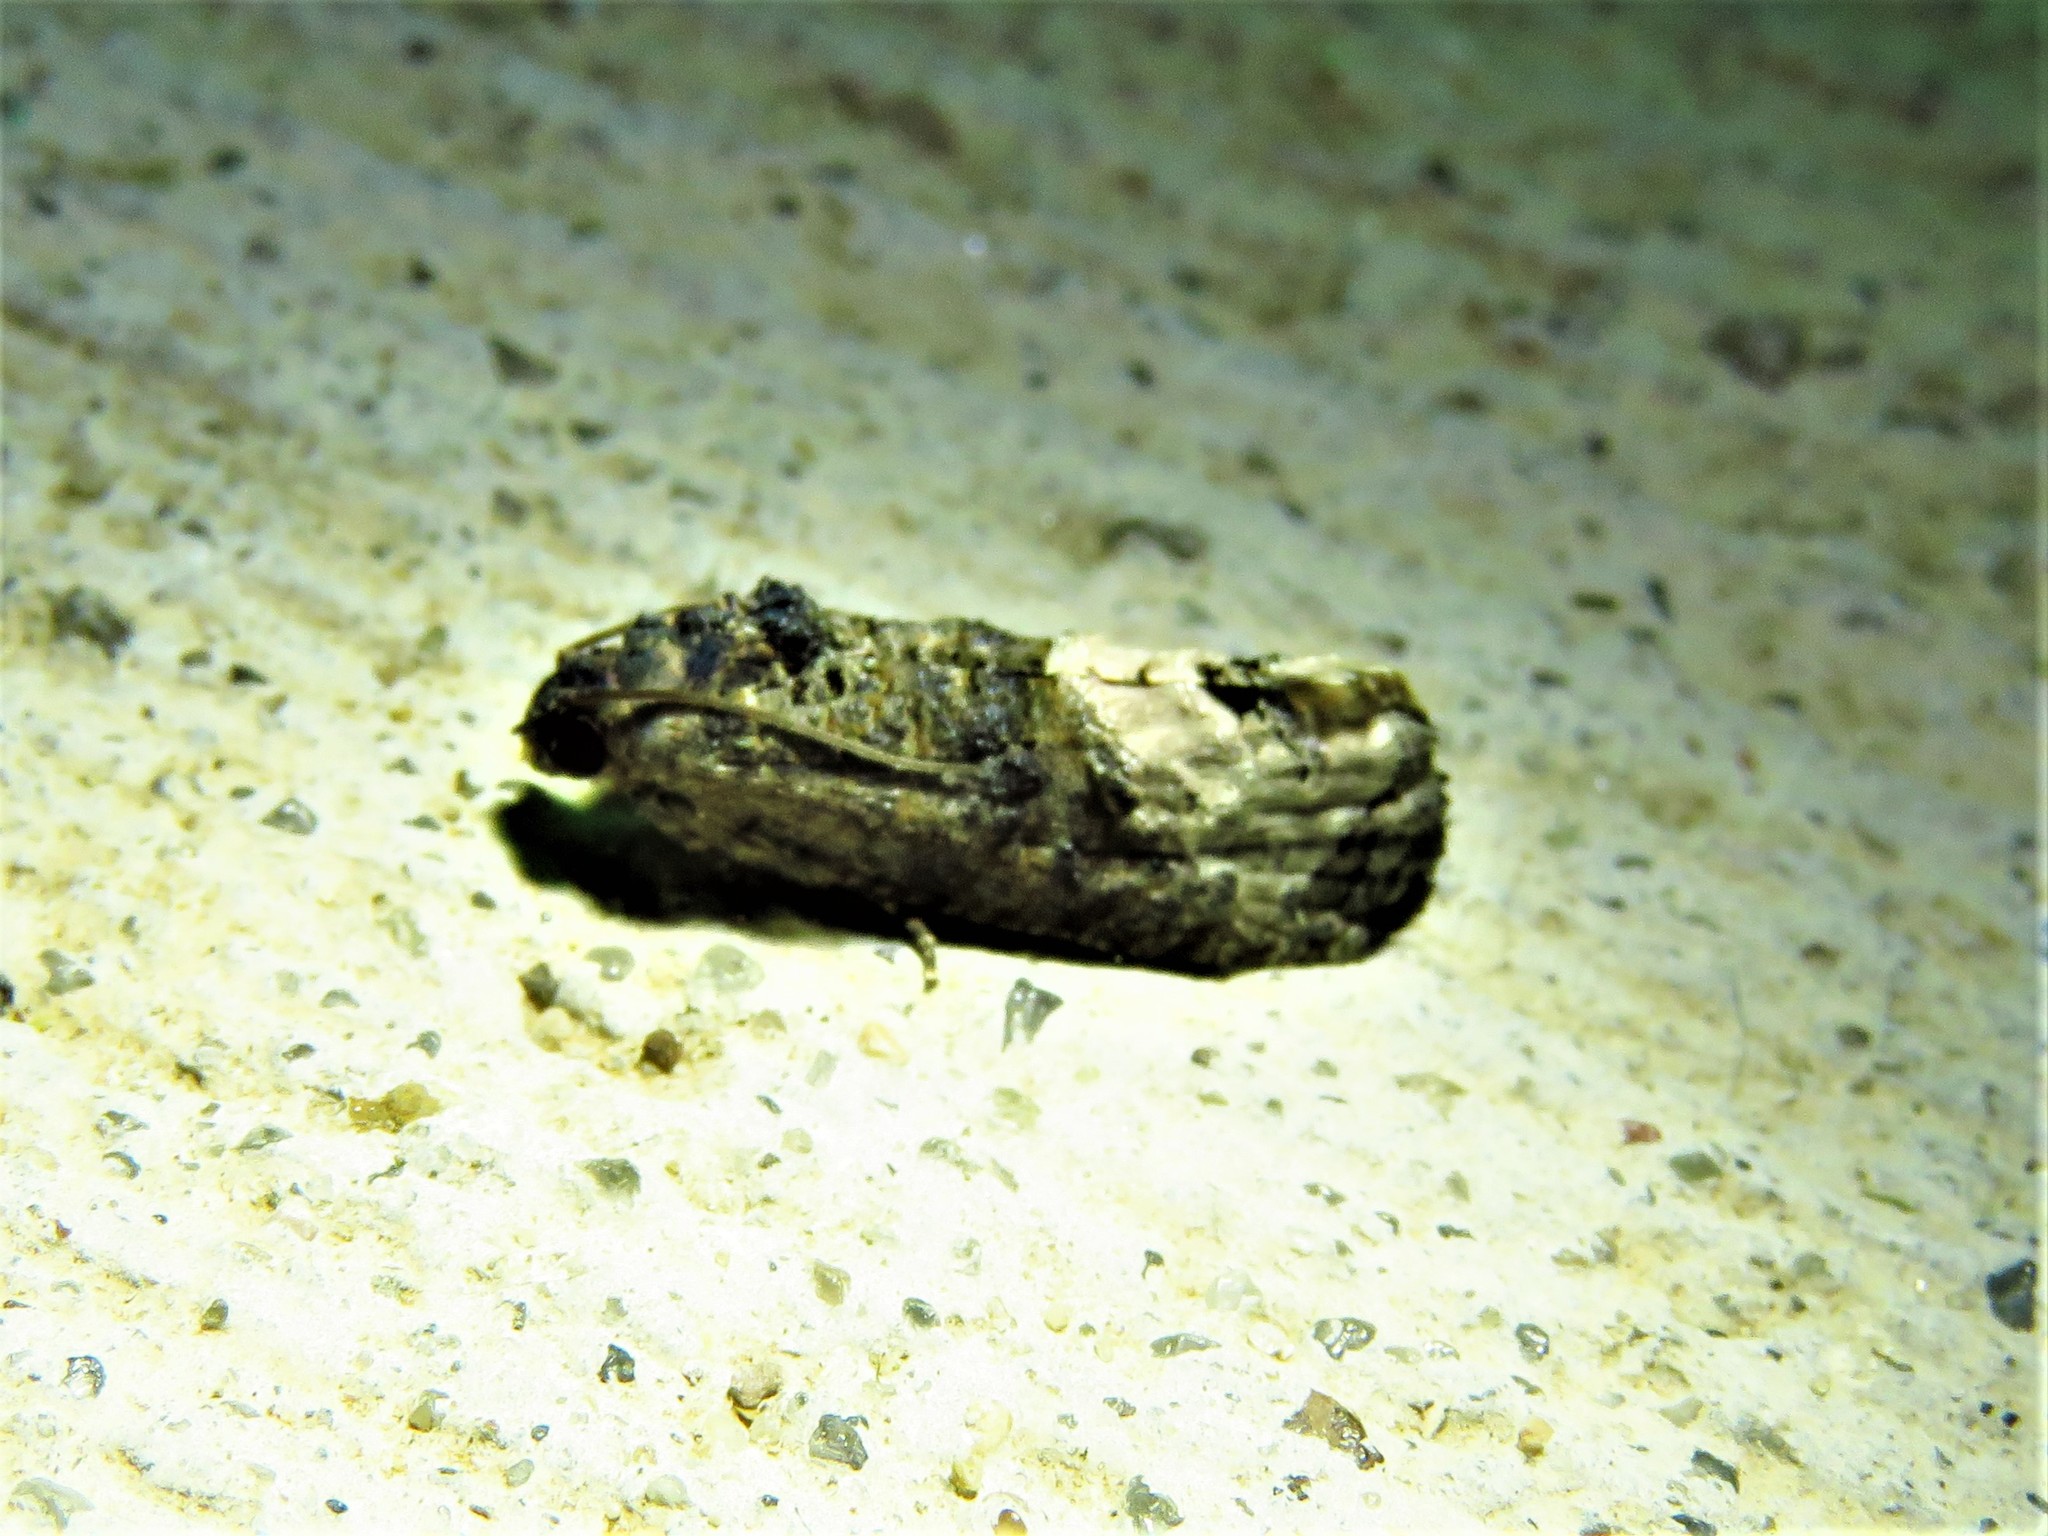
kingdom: Animalia
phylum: Arthropoda
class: Insecta
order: Lepidoptera
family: Tortricidae
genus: Ecdytolopha
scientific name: Ecdytolopha insiticiana
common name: Locust twig borer moth
